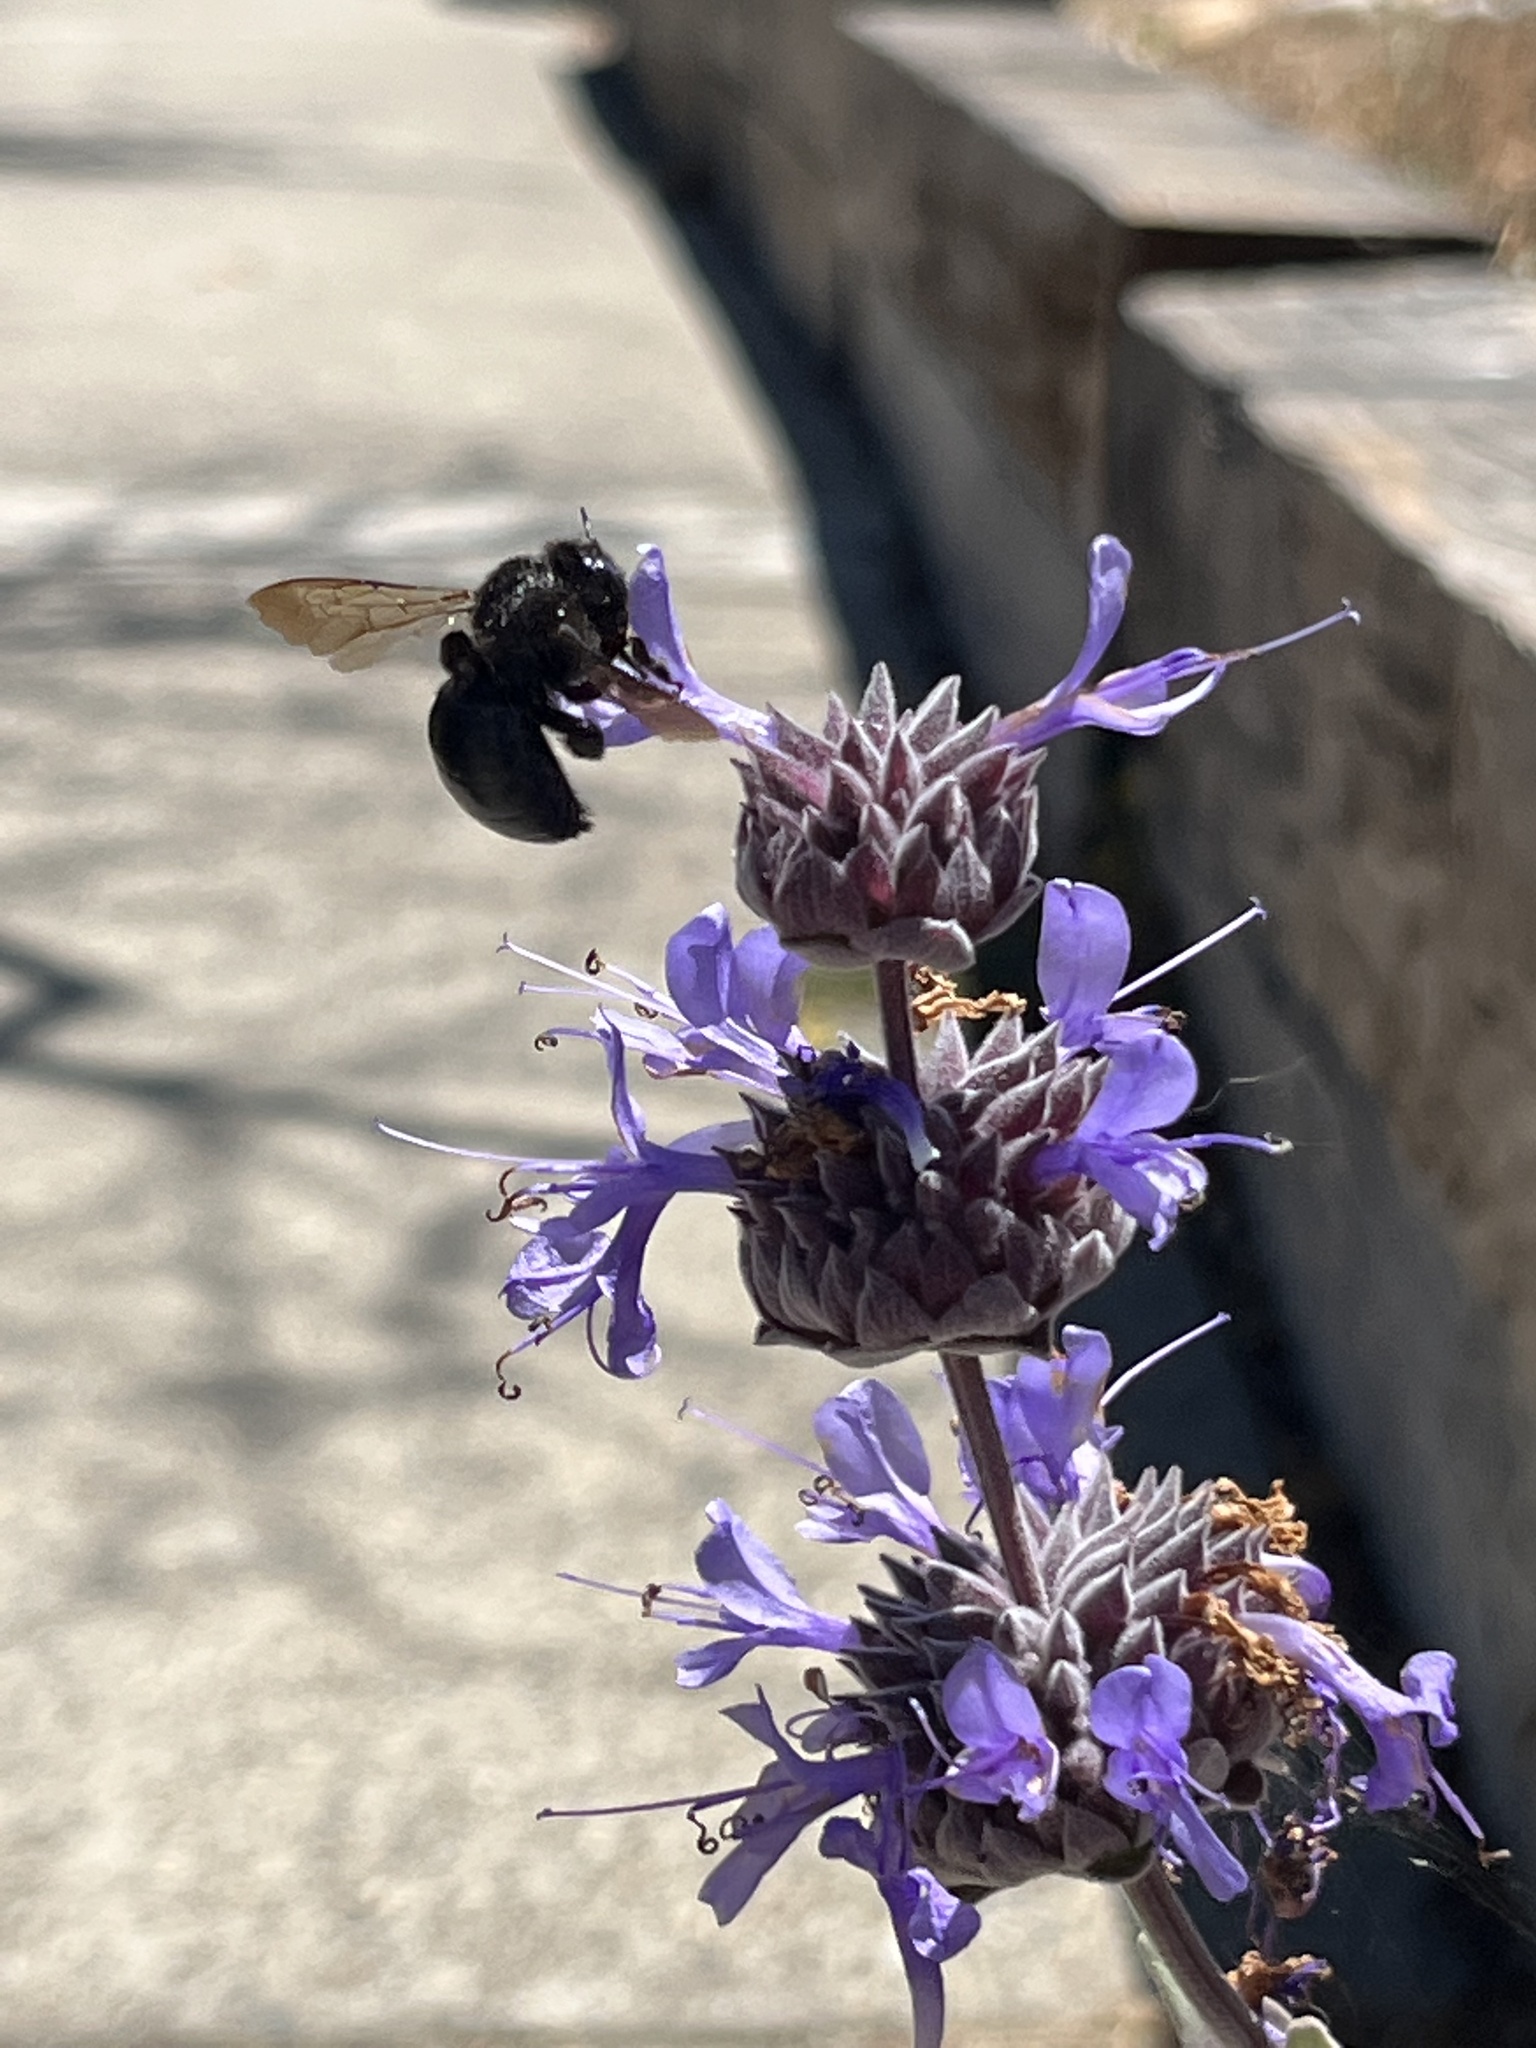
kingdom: Animalia
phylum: Arthropoda
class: Insecta
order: Hymenoptera
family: Apidae
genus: Xylocopa
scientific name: Xylocopa sonorina
